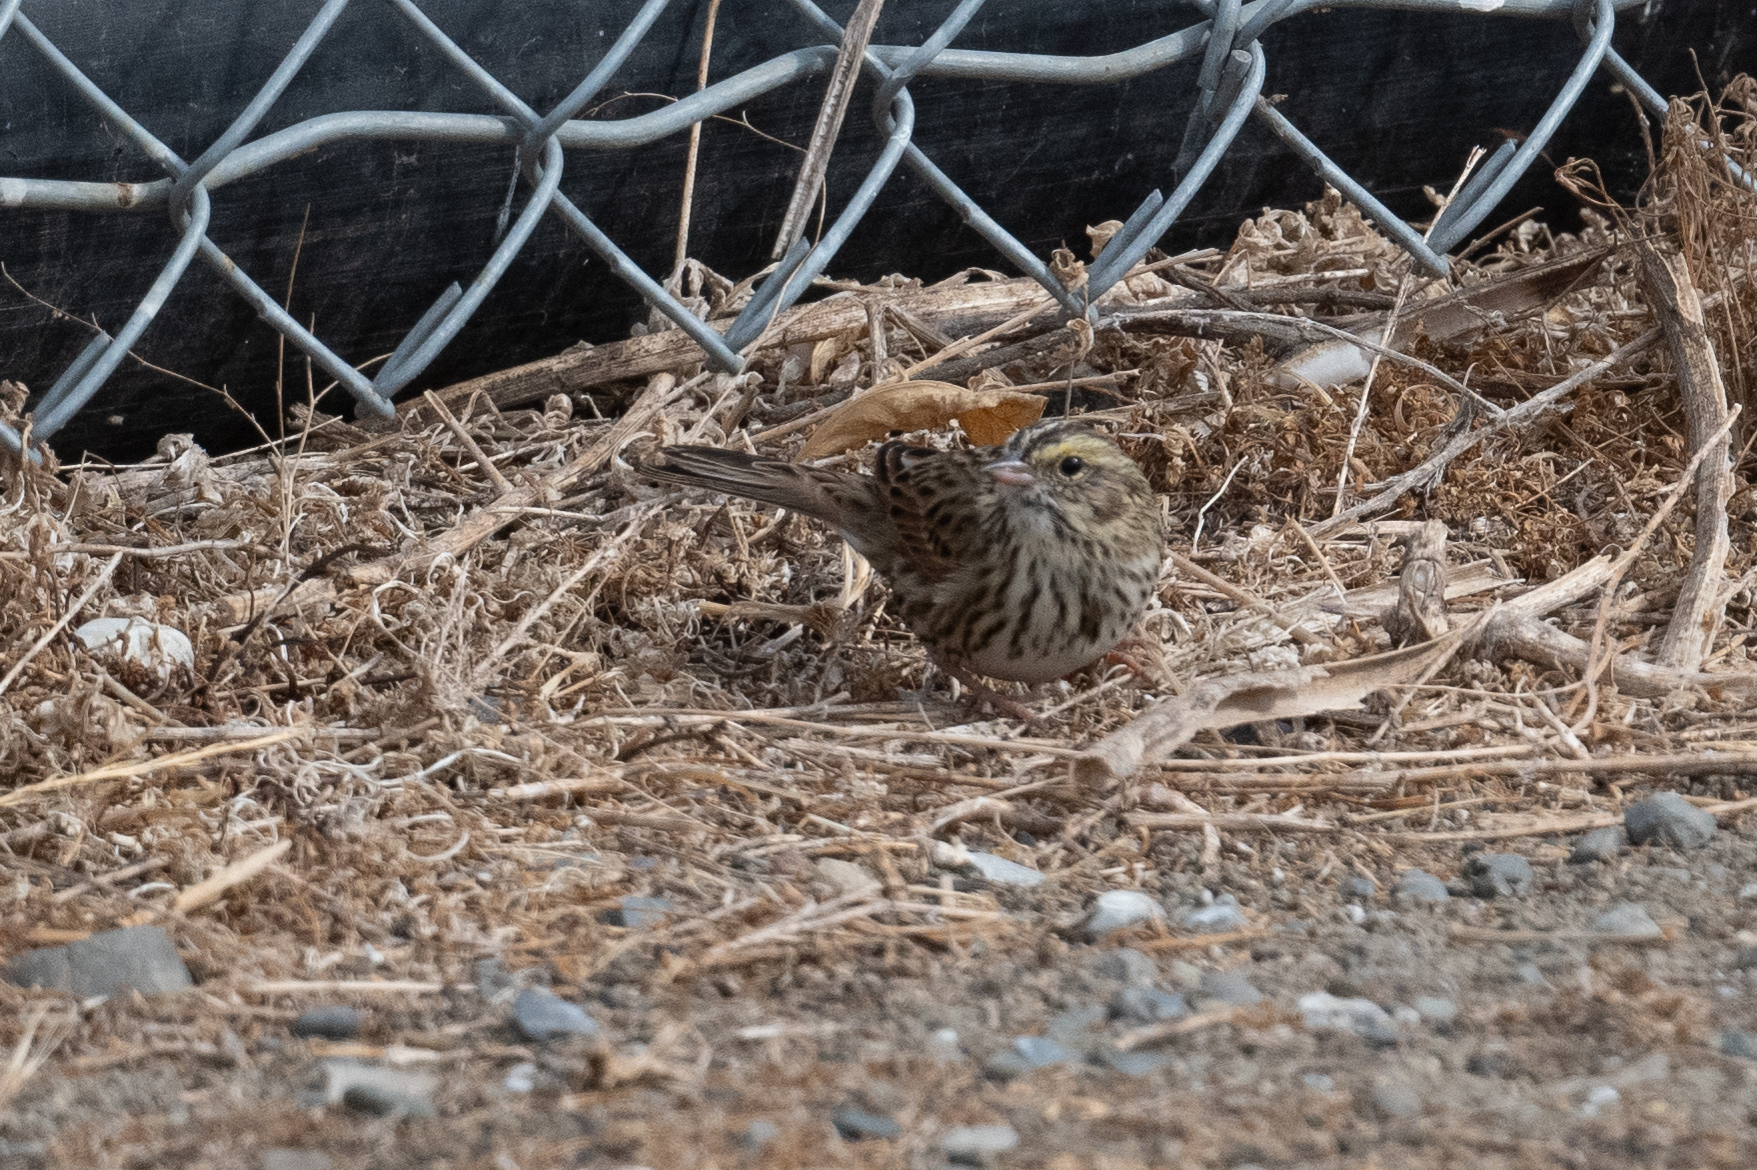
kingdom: Animalia
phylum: Chordata
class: Aves
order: Passeriformes
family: Passerellidae
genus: Passerculus
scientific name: Passerculus sandwichensis
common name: Savannah sparrow
